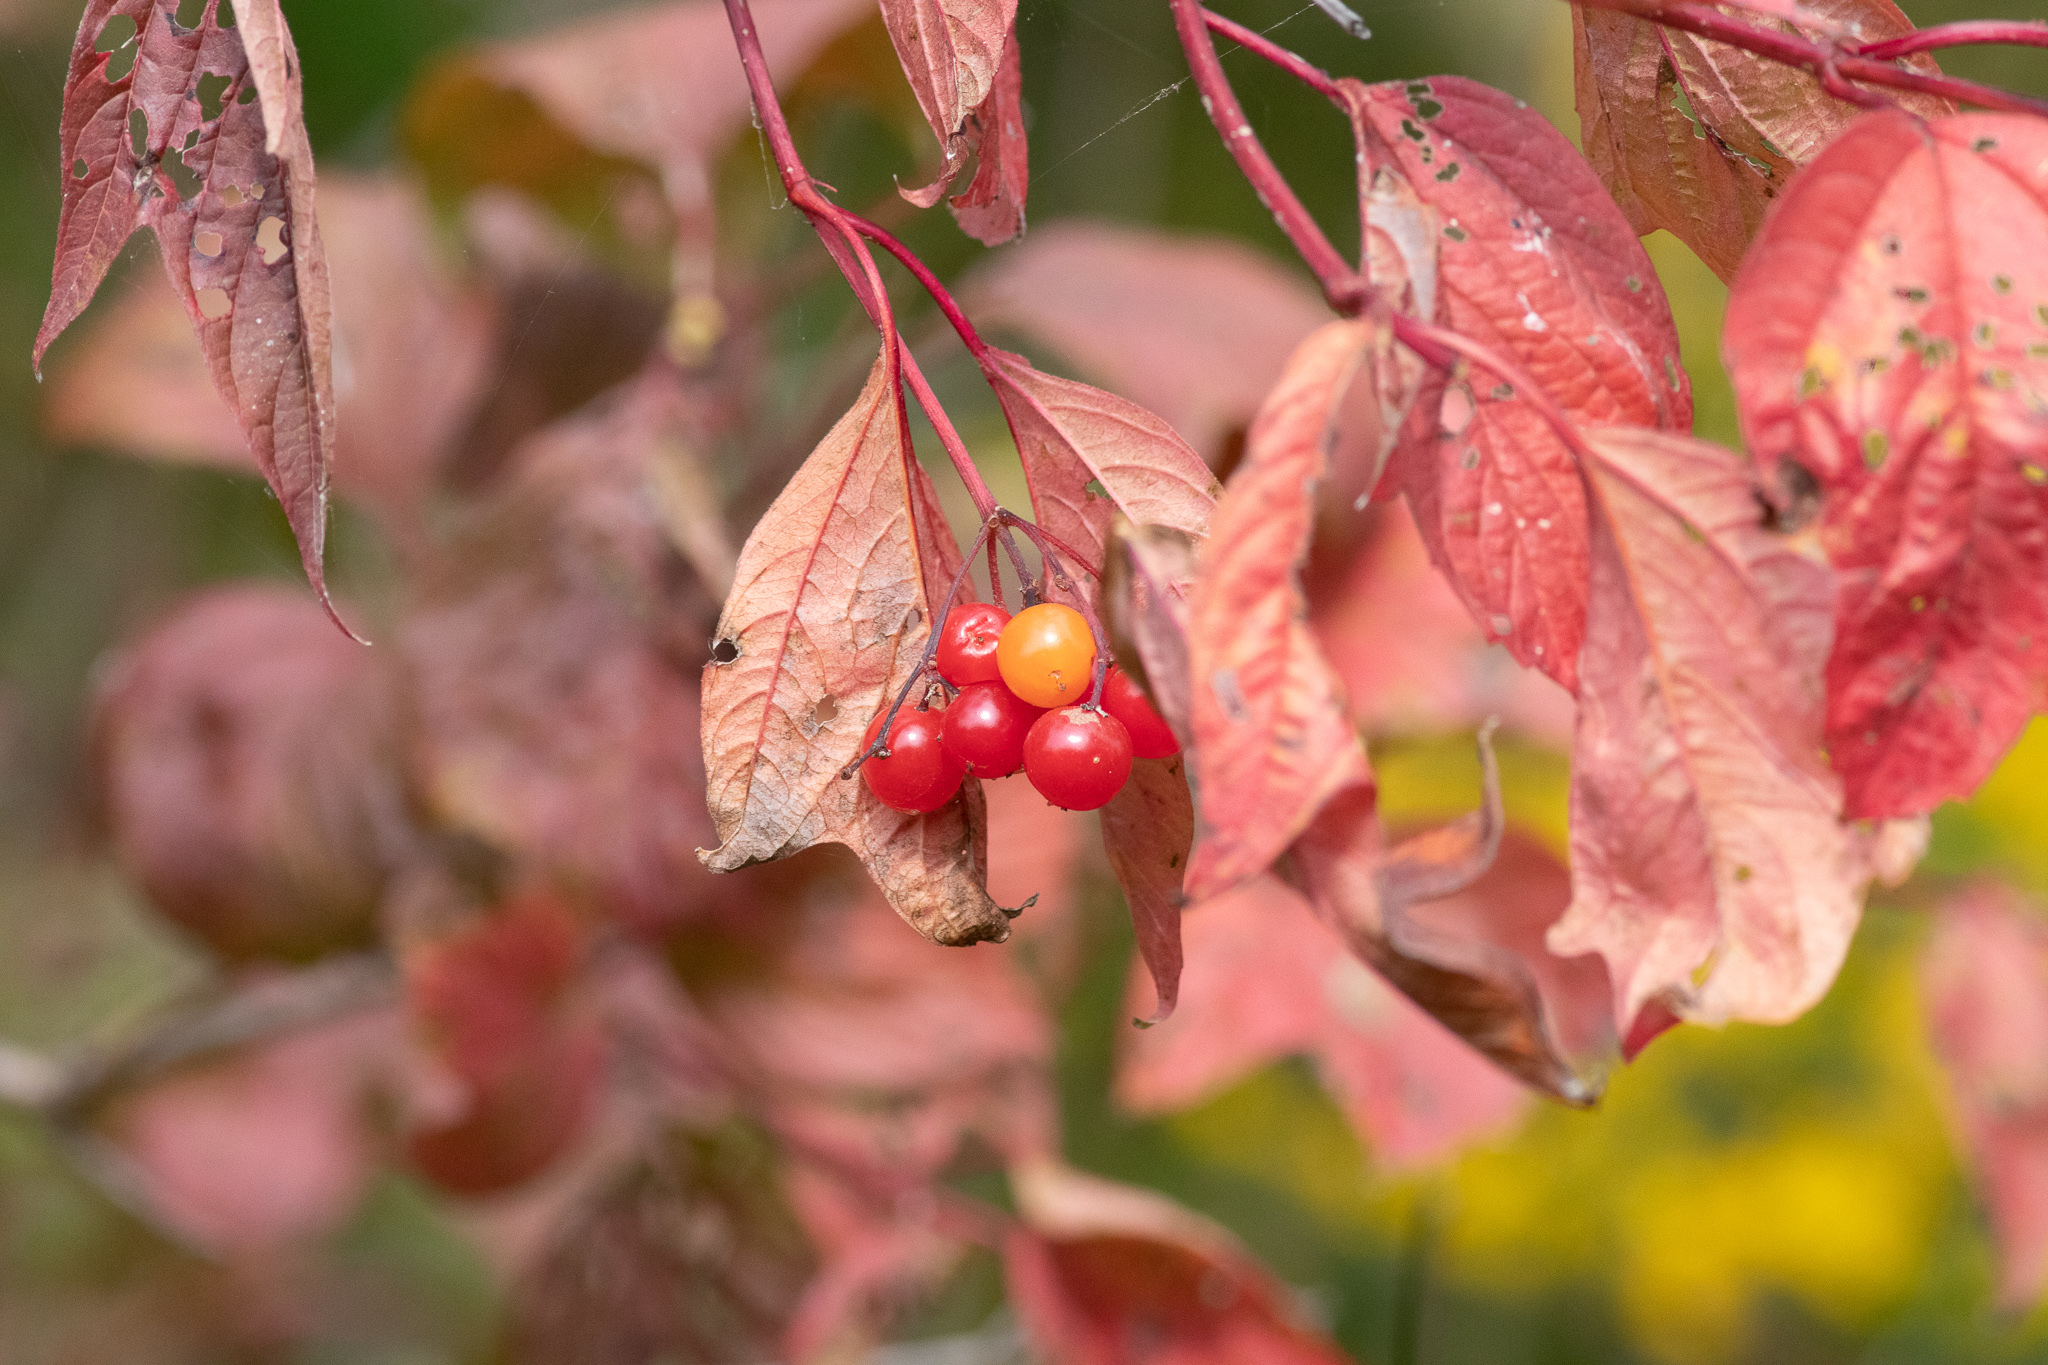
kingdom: Plantae
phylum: Tracheophyta
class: Magnoliopsida
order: Dipsacales
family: Viburnaceae
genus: Viburnum
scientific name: Viburnum opulus
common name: Guelder-rose
